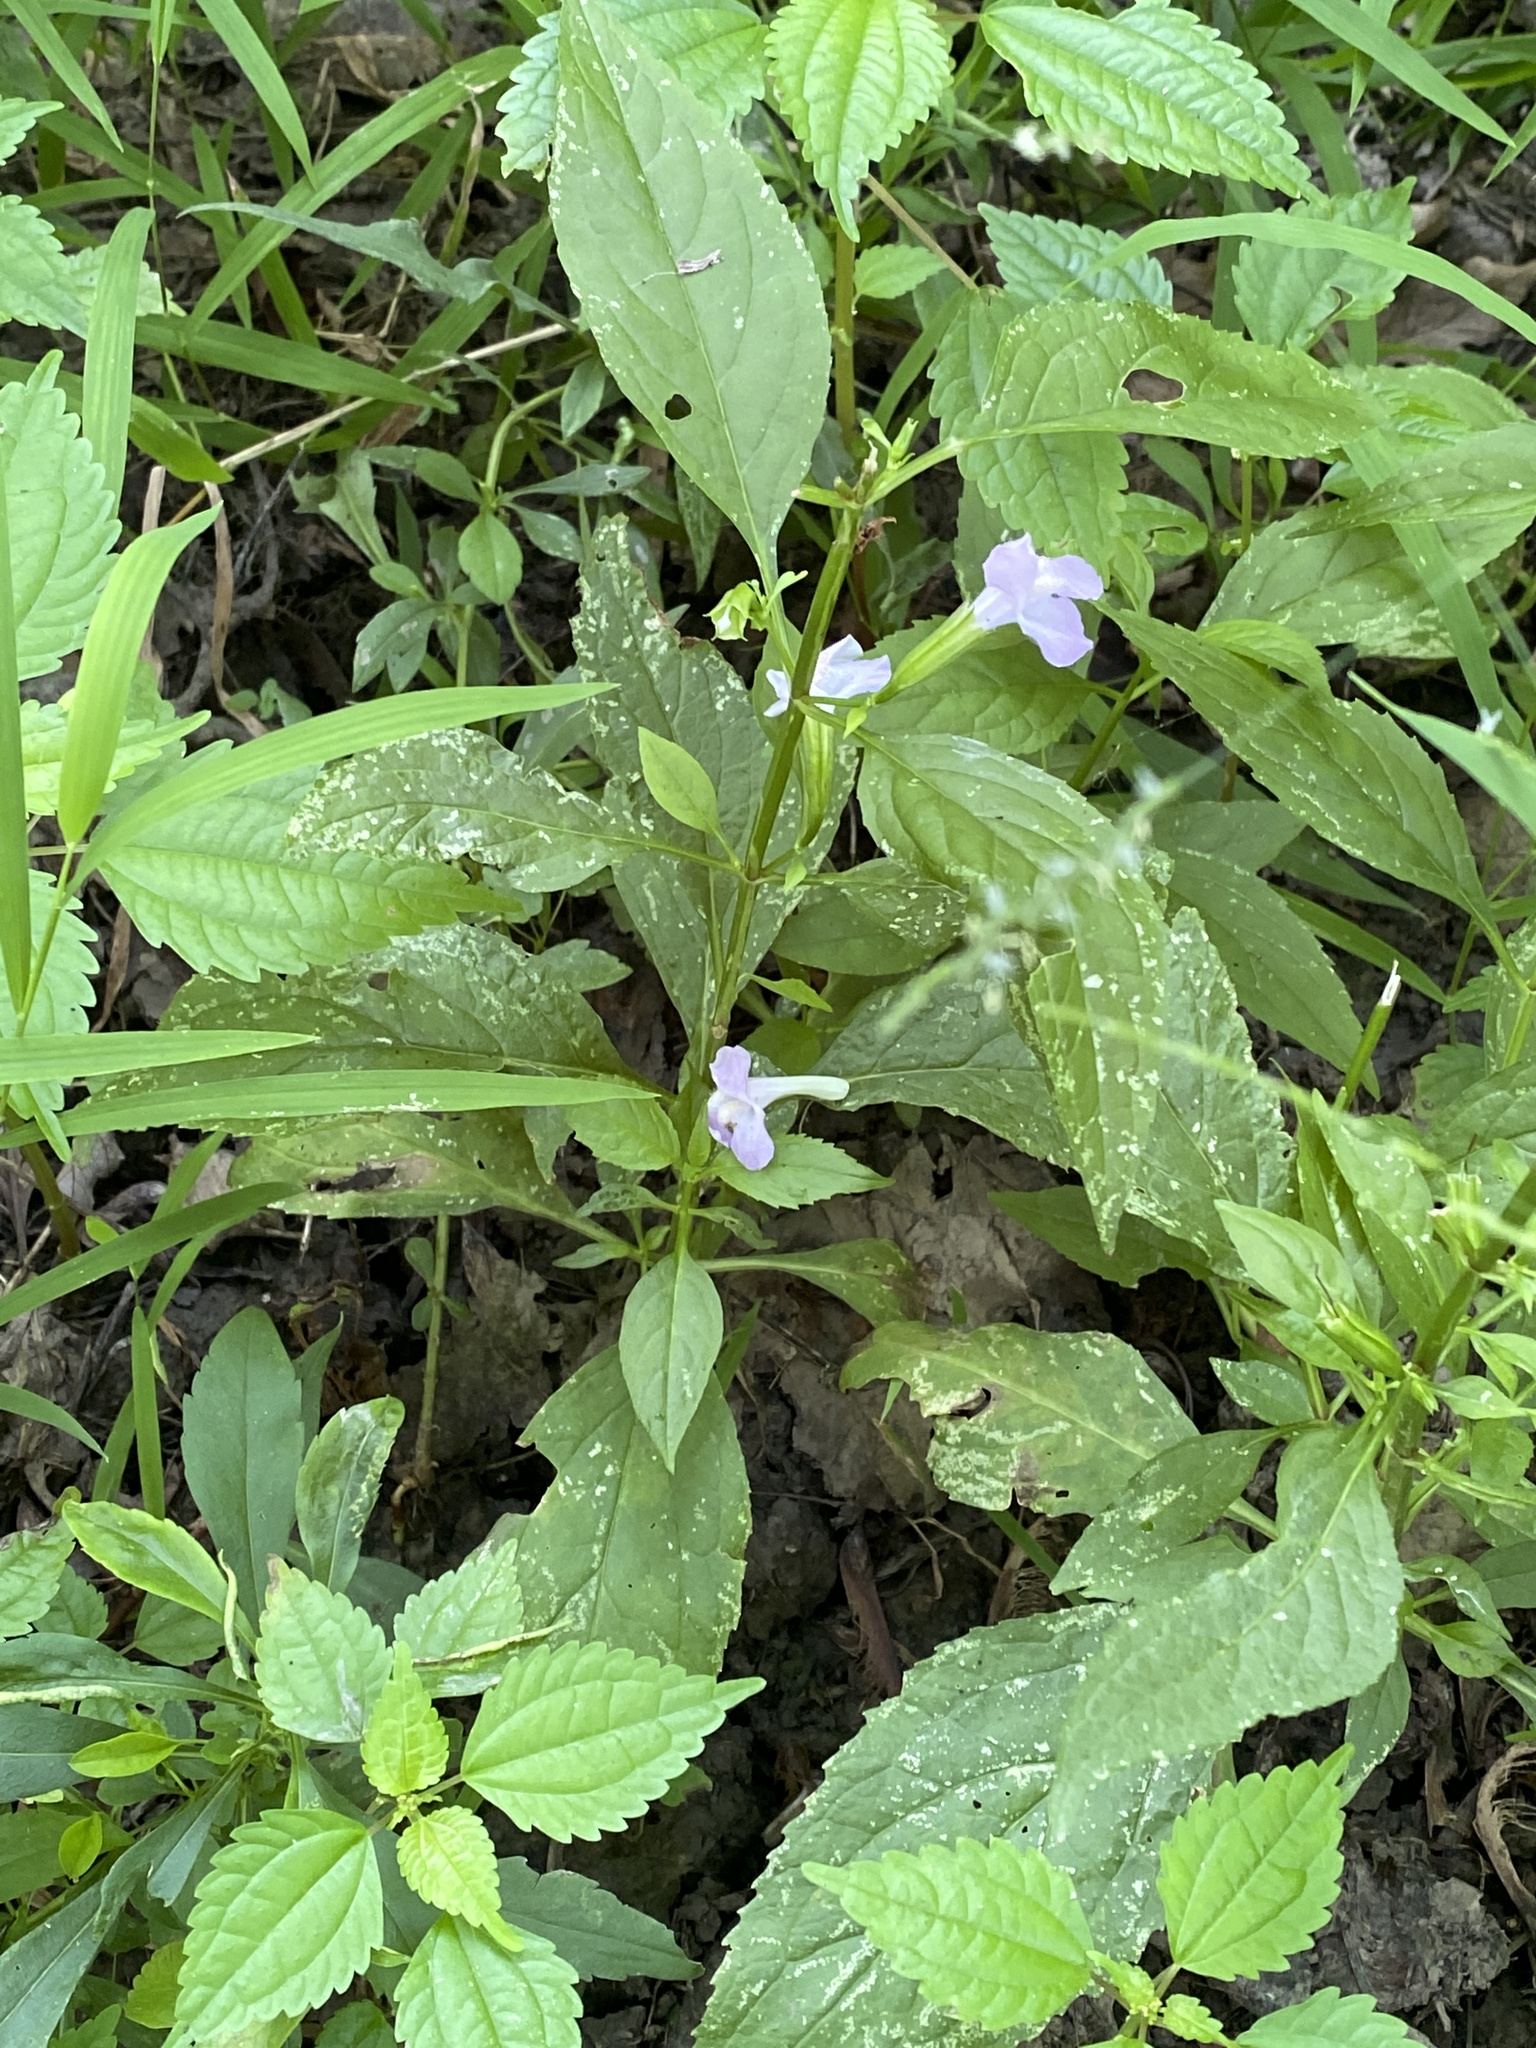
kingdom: Plantae
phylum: Tracheophyta
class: Magnoliopsida
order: Lamiales
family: Phrymaceae
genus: Mimulus
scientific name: Mimulus alatus
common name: Sharp-wing monkey-flower
